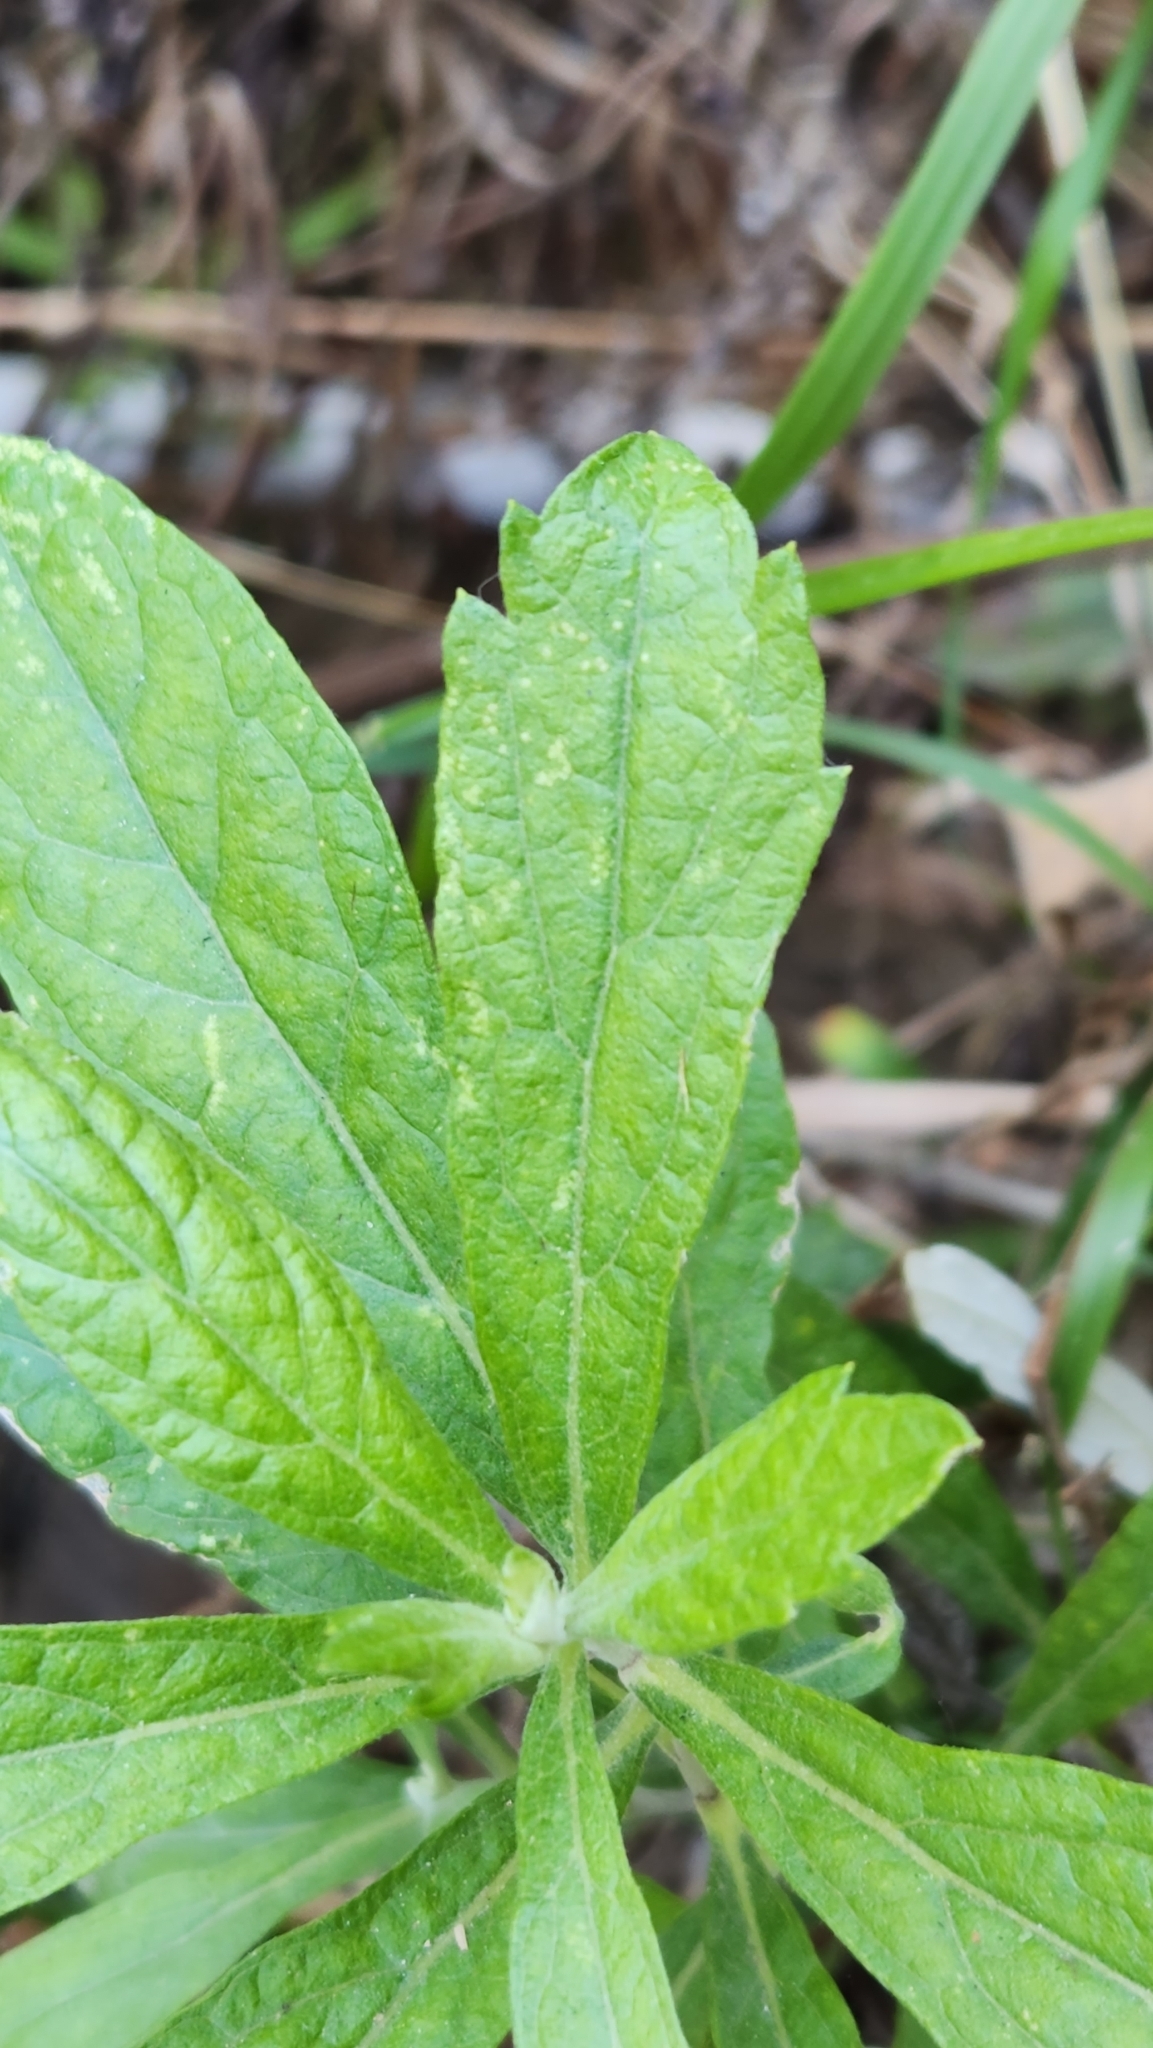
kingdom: Plantae
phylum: Tracheophyta
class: Magnoliopsida
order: Asterales
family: Asteraceae
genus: Artemisia
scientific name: Artemisia douglasiana
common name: Northwest mugwort
